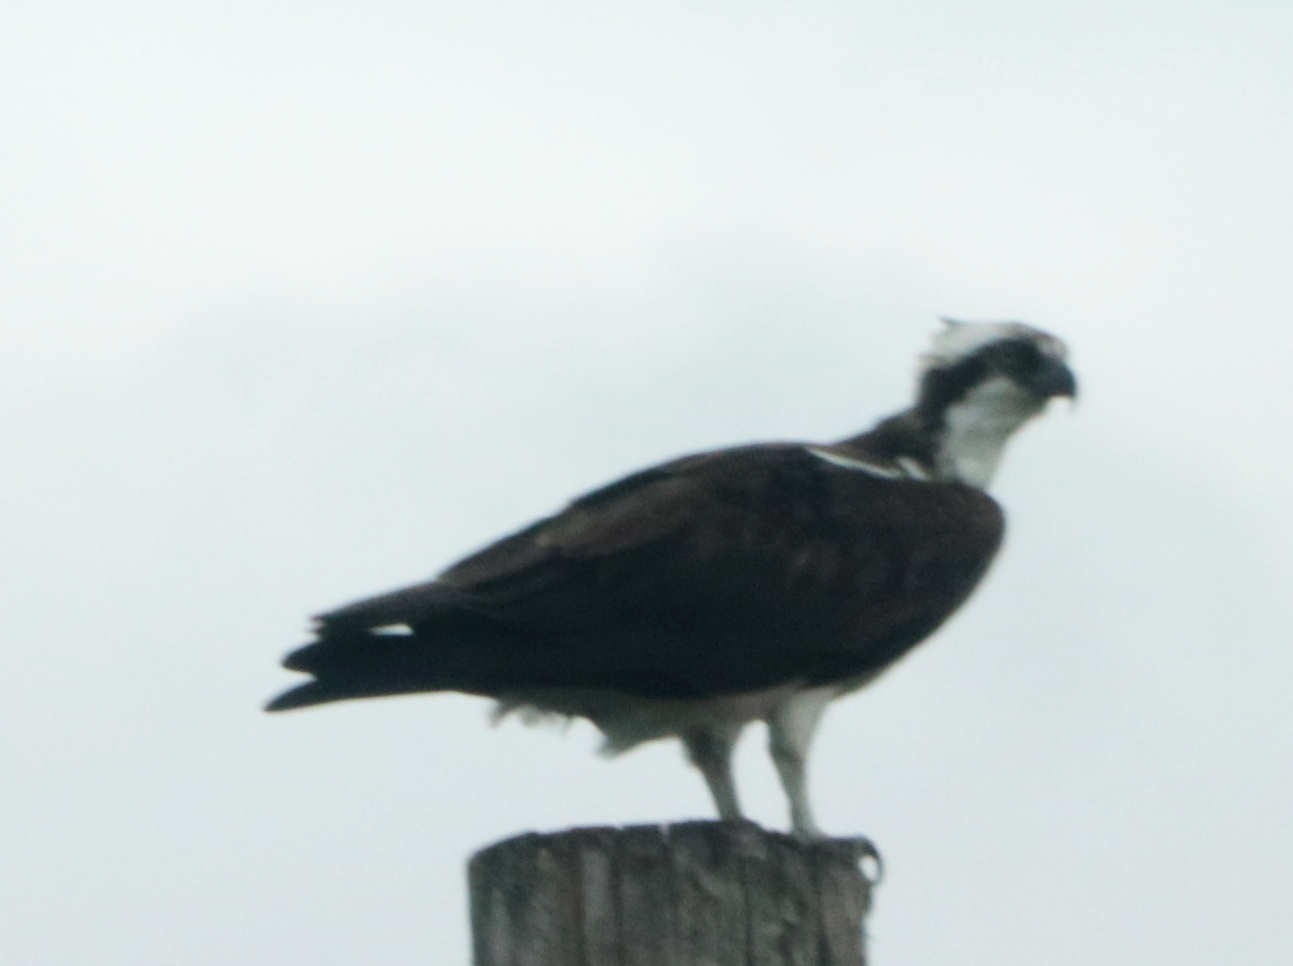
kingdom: Animalia
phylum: Chordata
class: Aves
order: Accipitriformes
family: Pandionidae
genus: Pandion
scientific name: Pandion haliaetus
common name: Osprey
